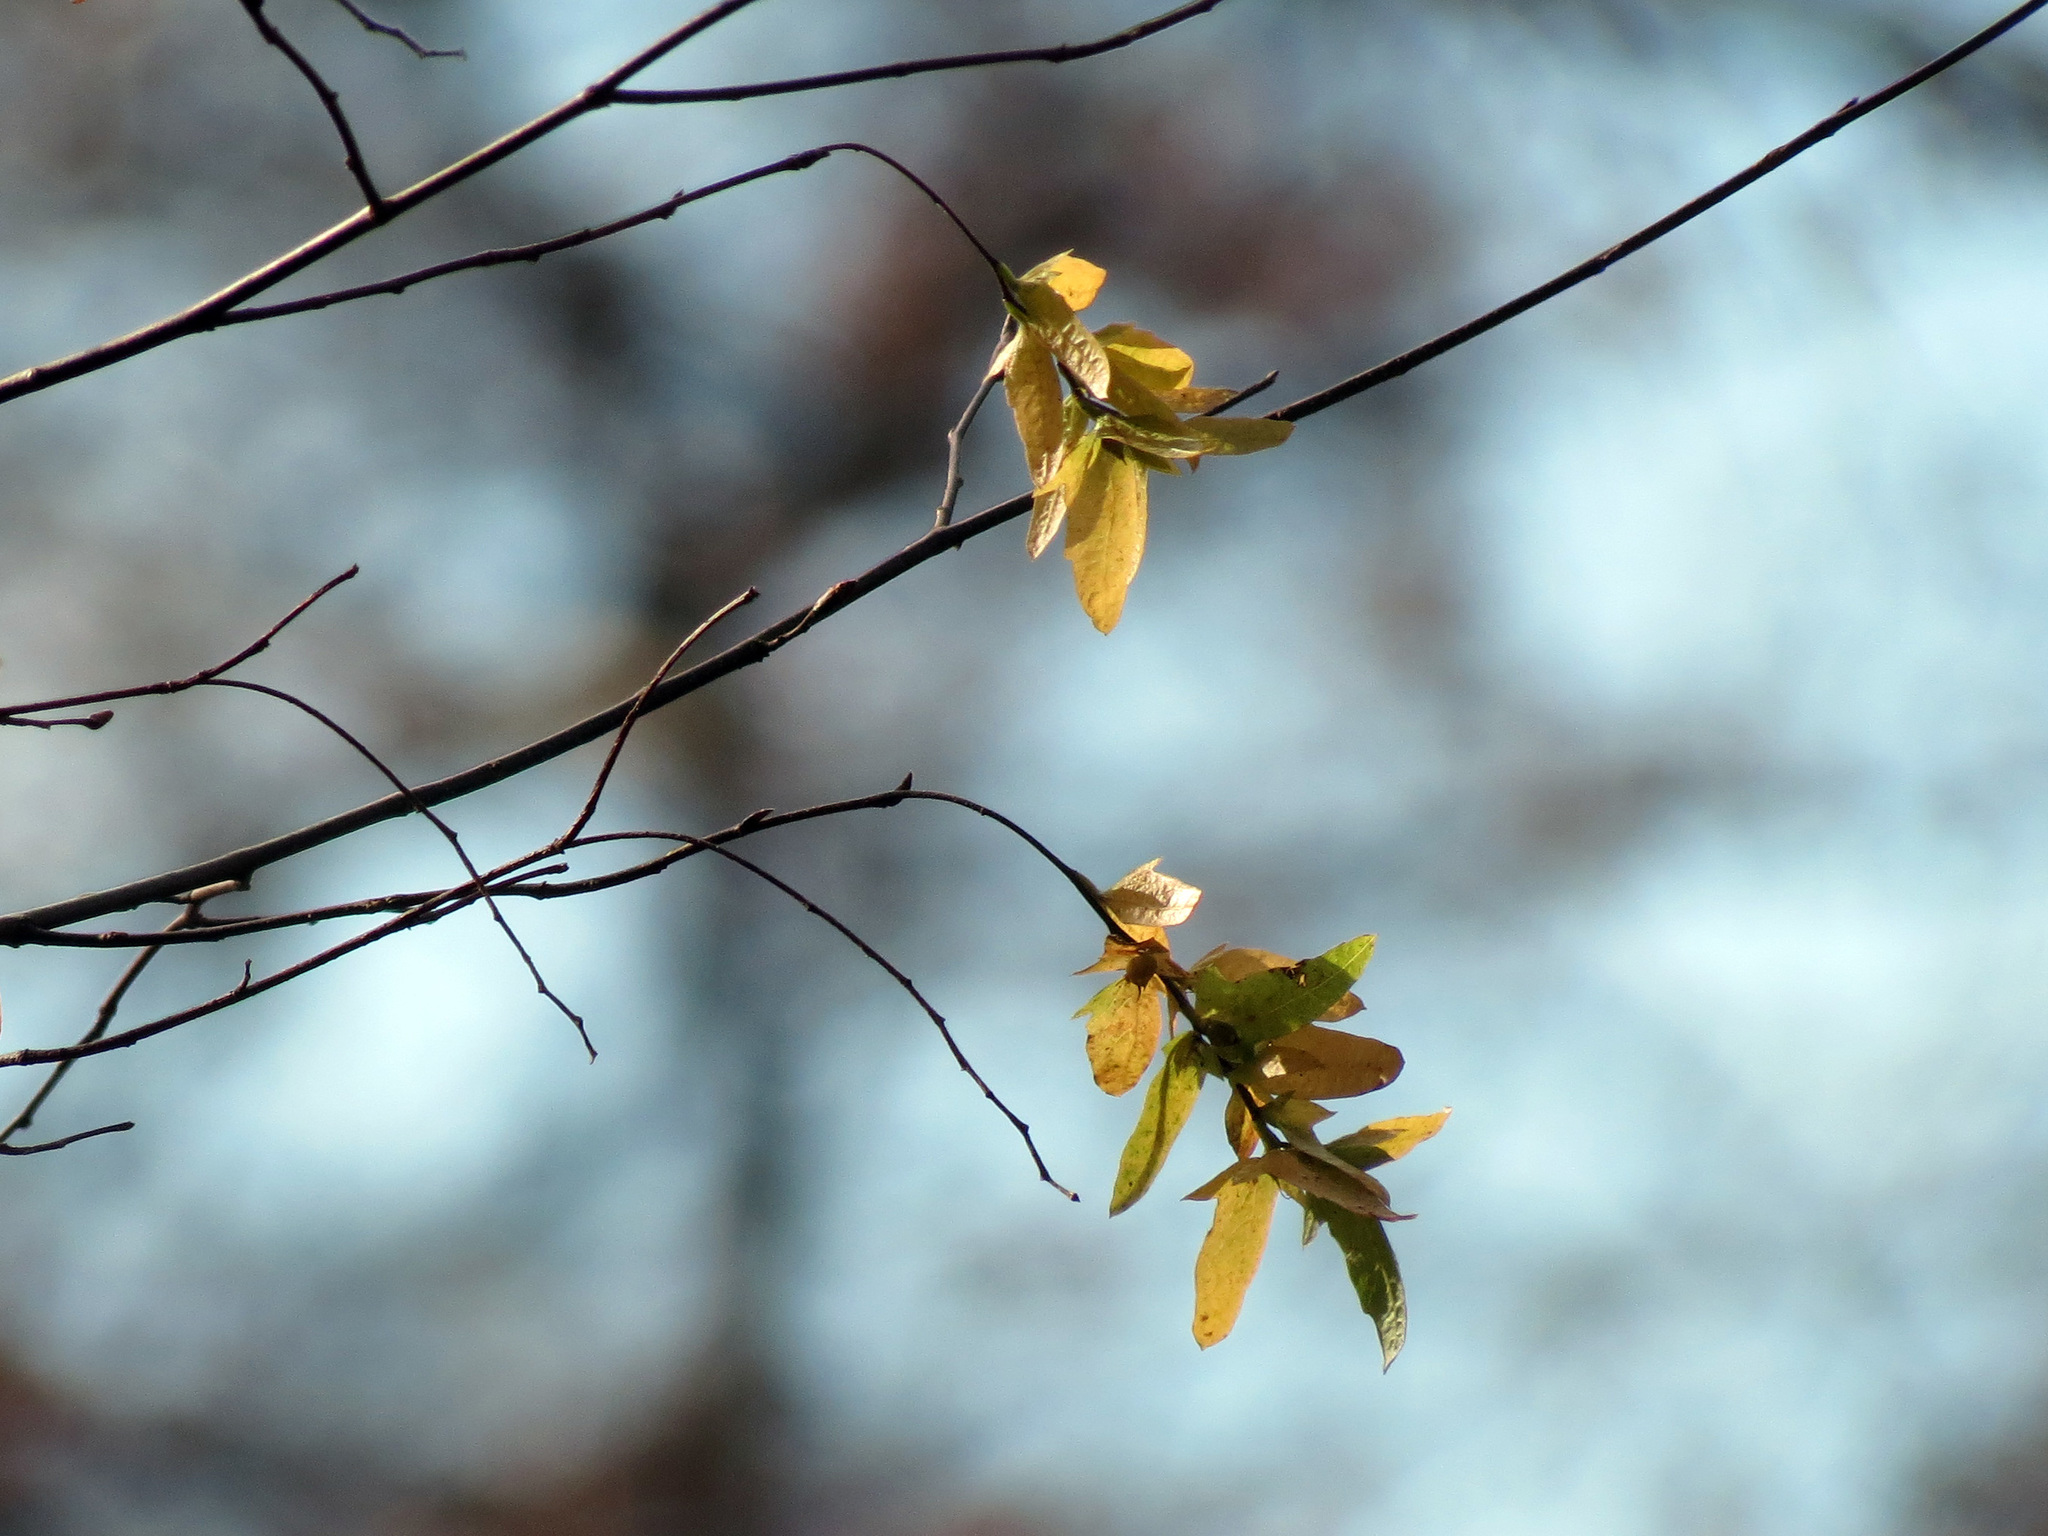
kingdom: Plantae
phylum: Tracheophyta
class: Magnoliopsida
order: Fagales
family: Betulaceae
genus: Carpinus
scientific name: Carpinus caroliniana
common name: American hornbeam
